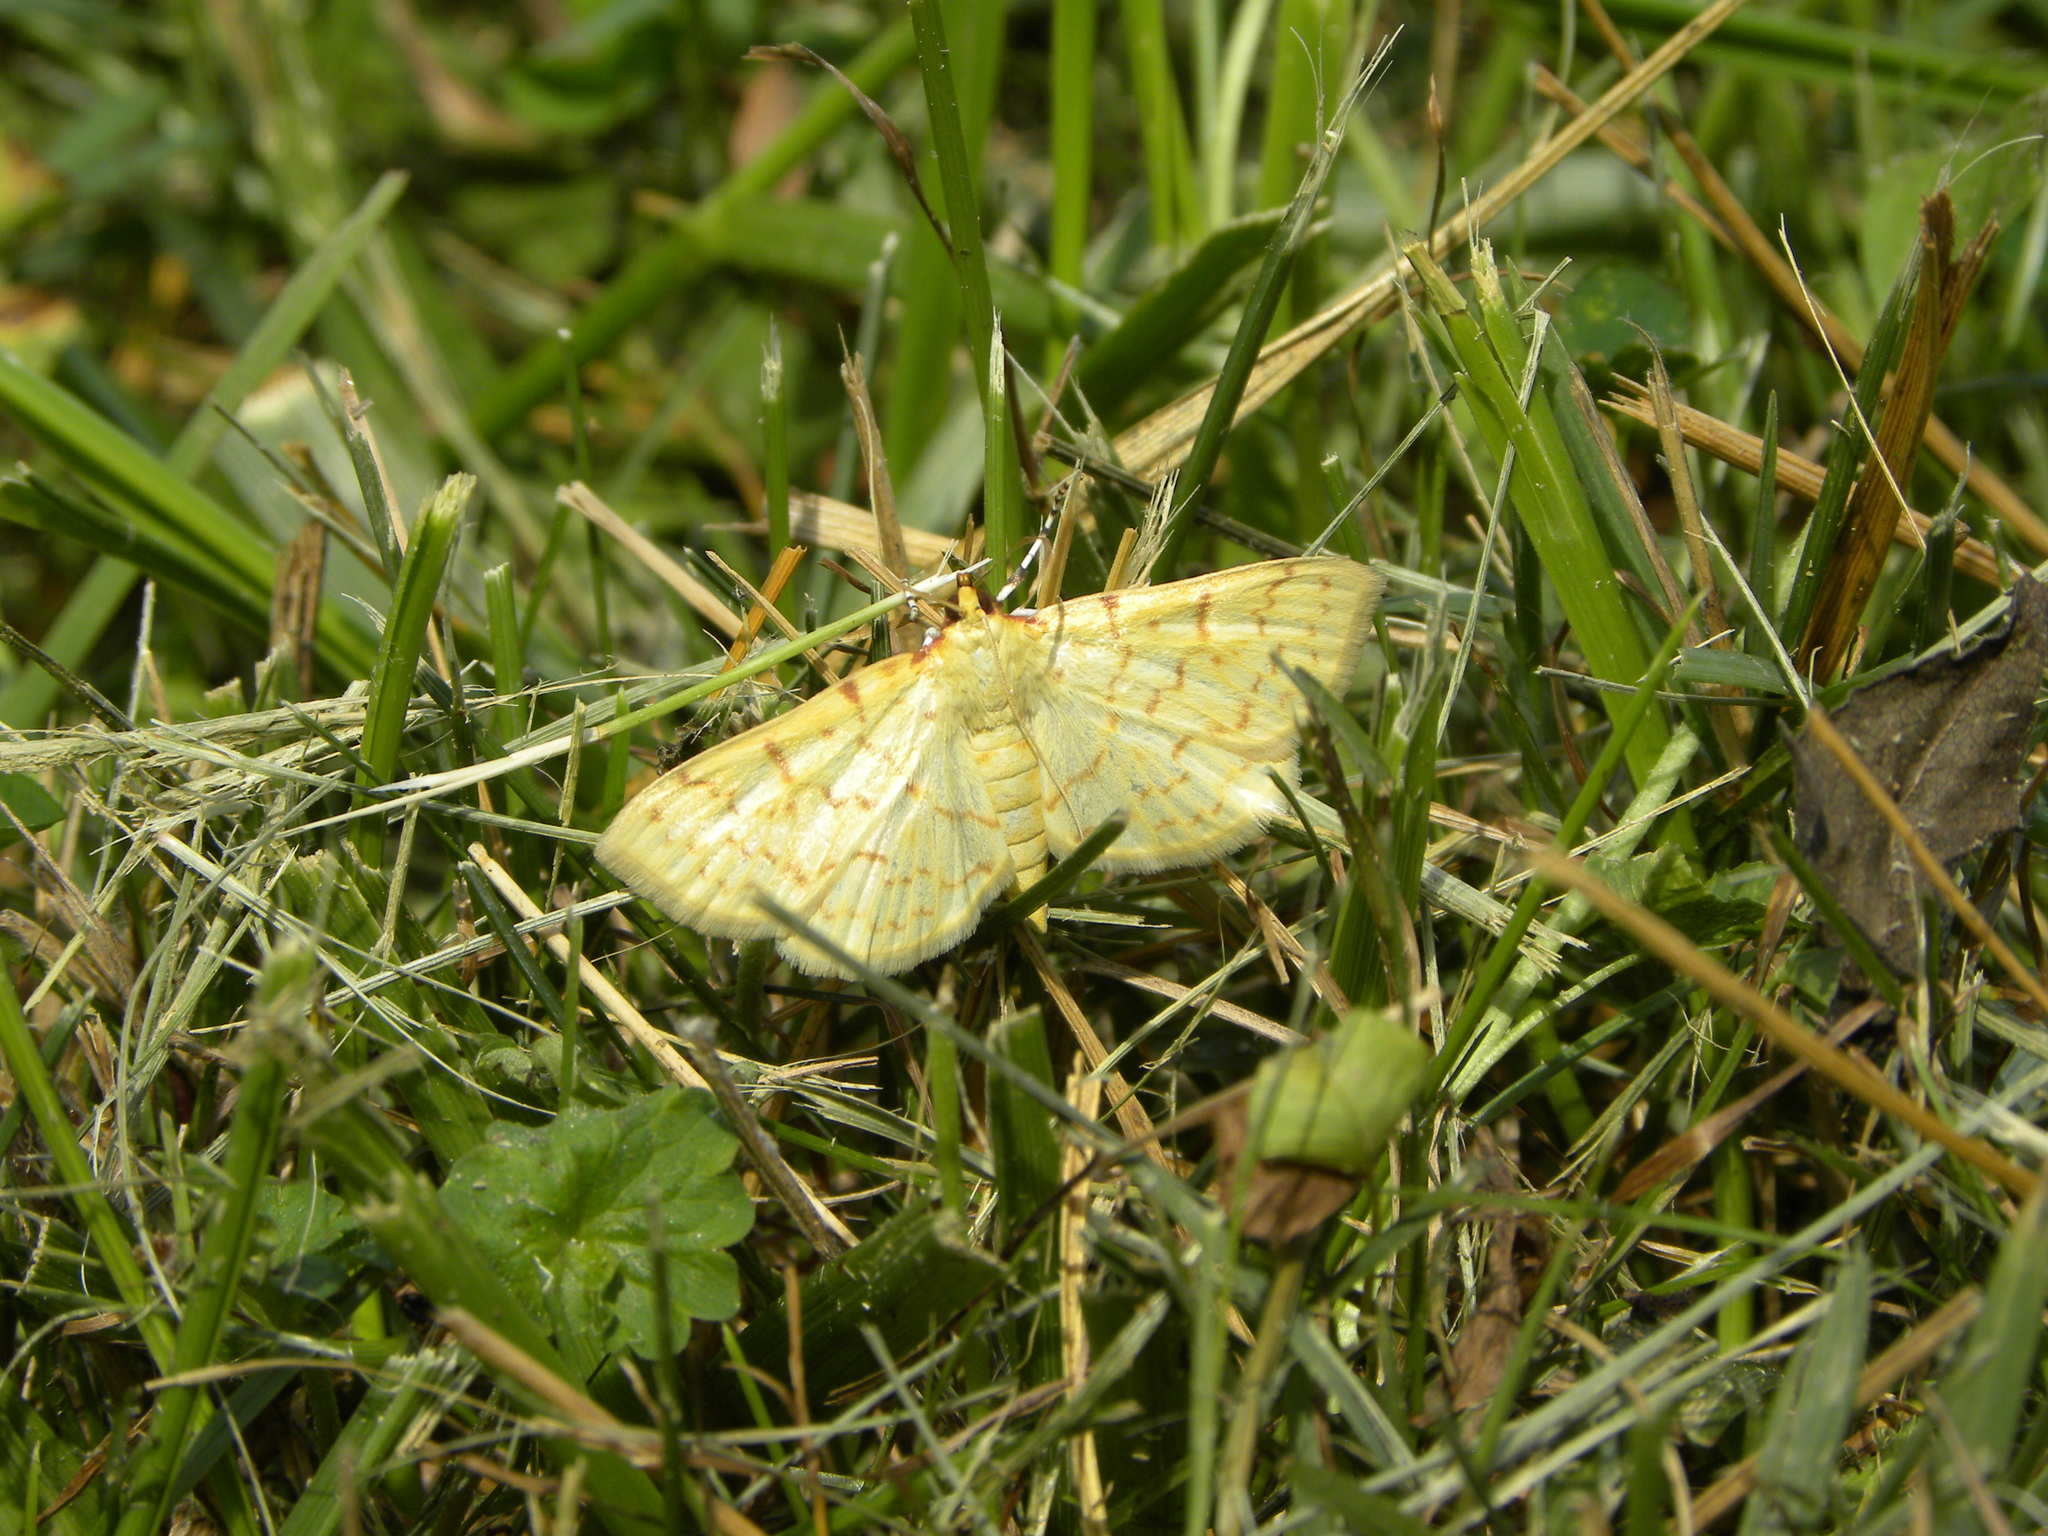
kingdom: Animalia
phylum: Arthropoda
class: Insecta
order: Lepidoptera
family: Crambidae
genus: Polygrammodes
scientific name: Polygrammodes flavidalis
